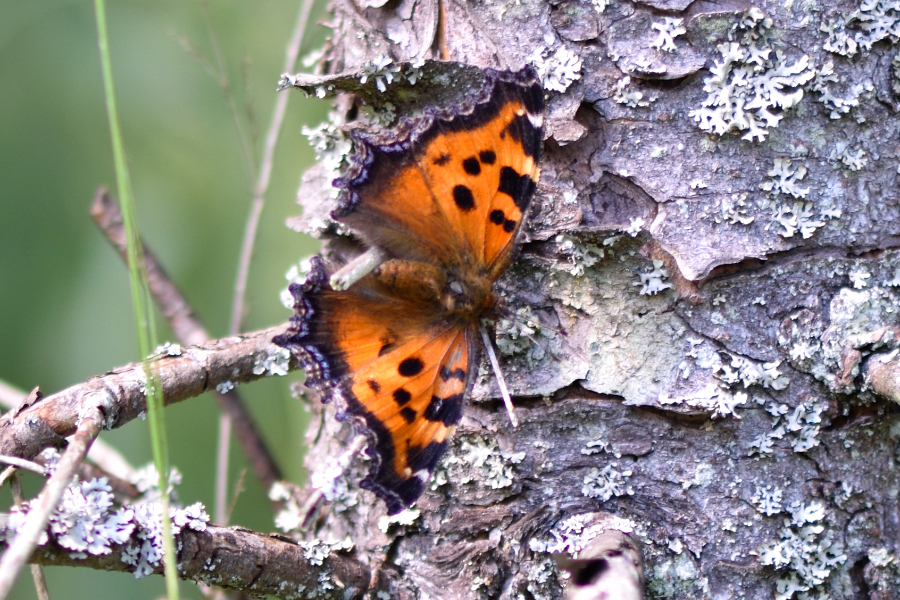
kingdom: Animalia
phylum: Arthropoda
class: Insecta
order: Lepidoptera
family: Nymphalidae
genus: Nymphalis
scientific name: Nymphalis xanthomelas
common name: Scarce tortoiseshell
